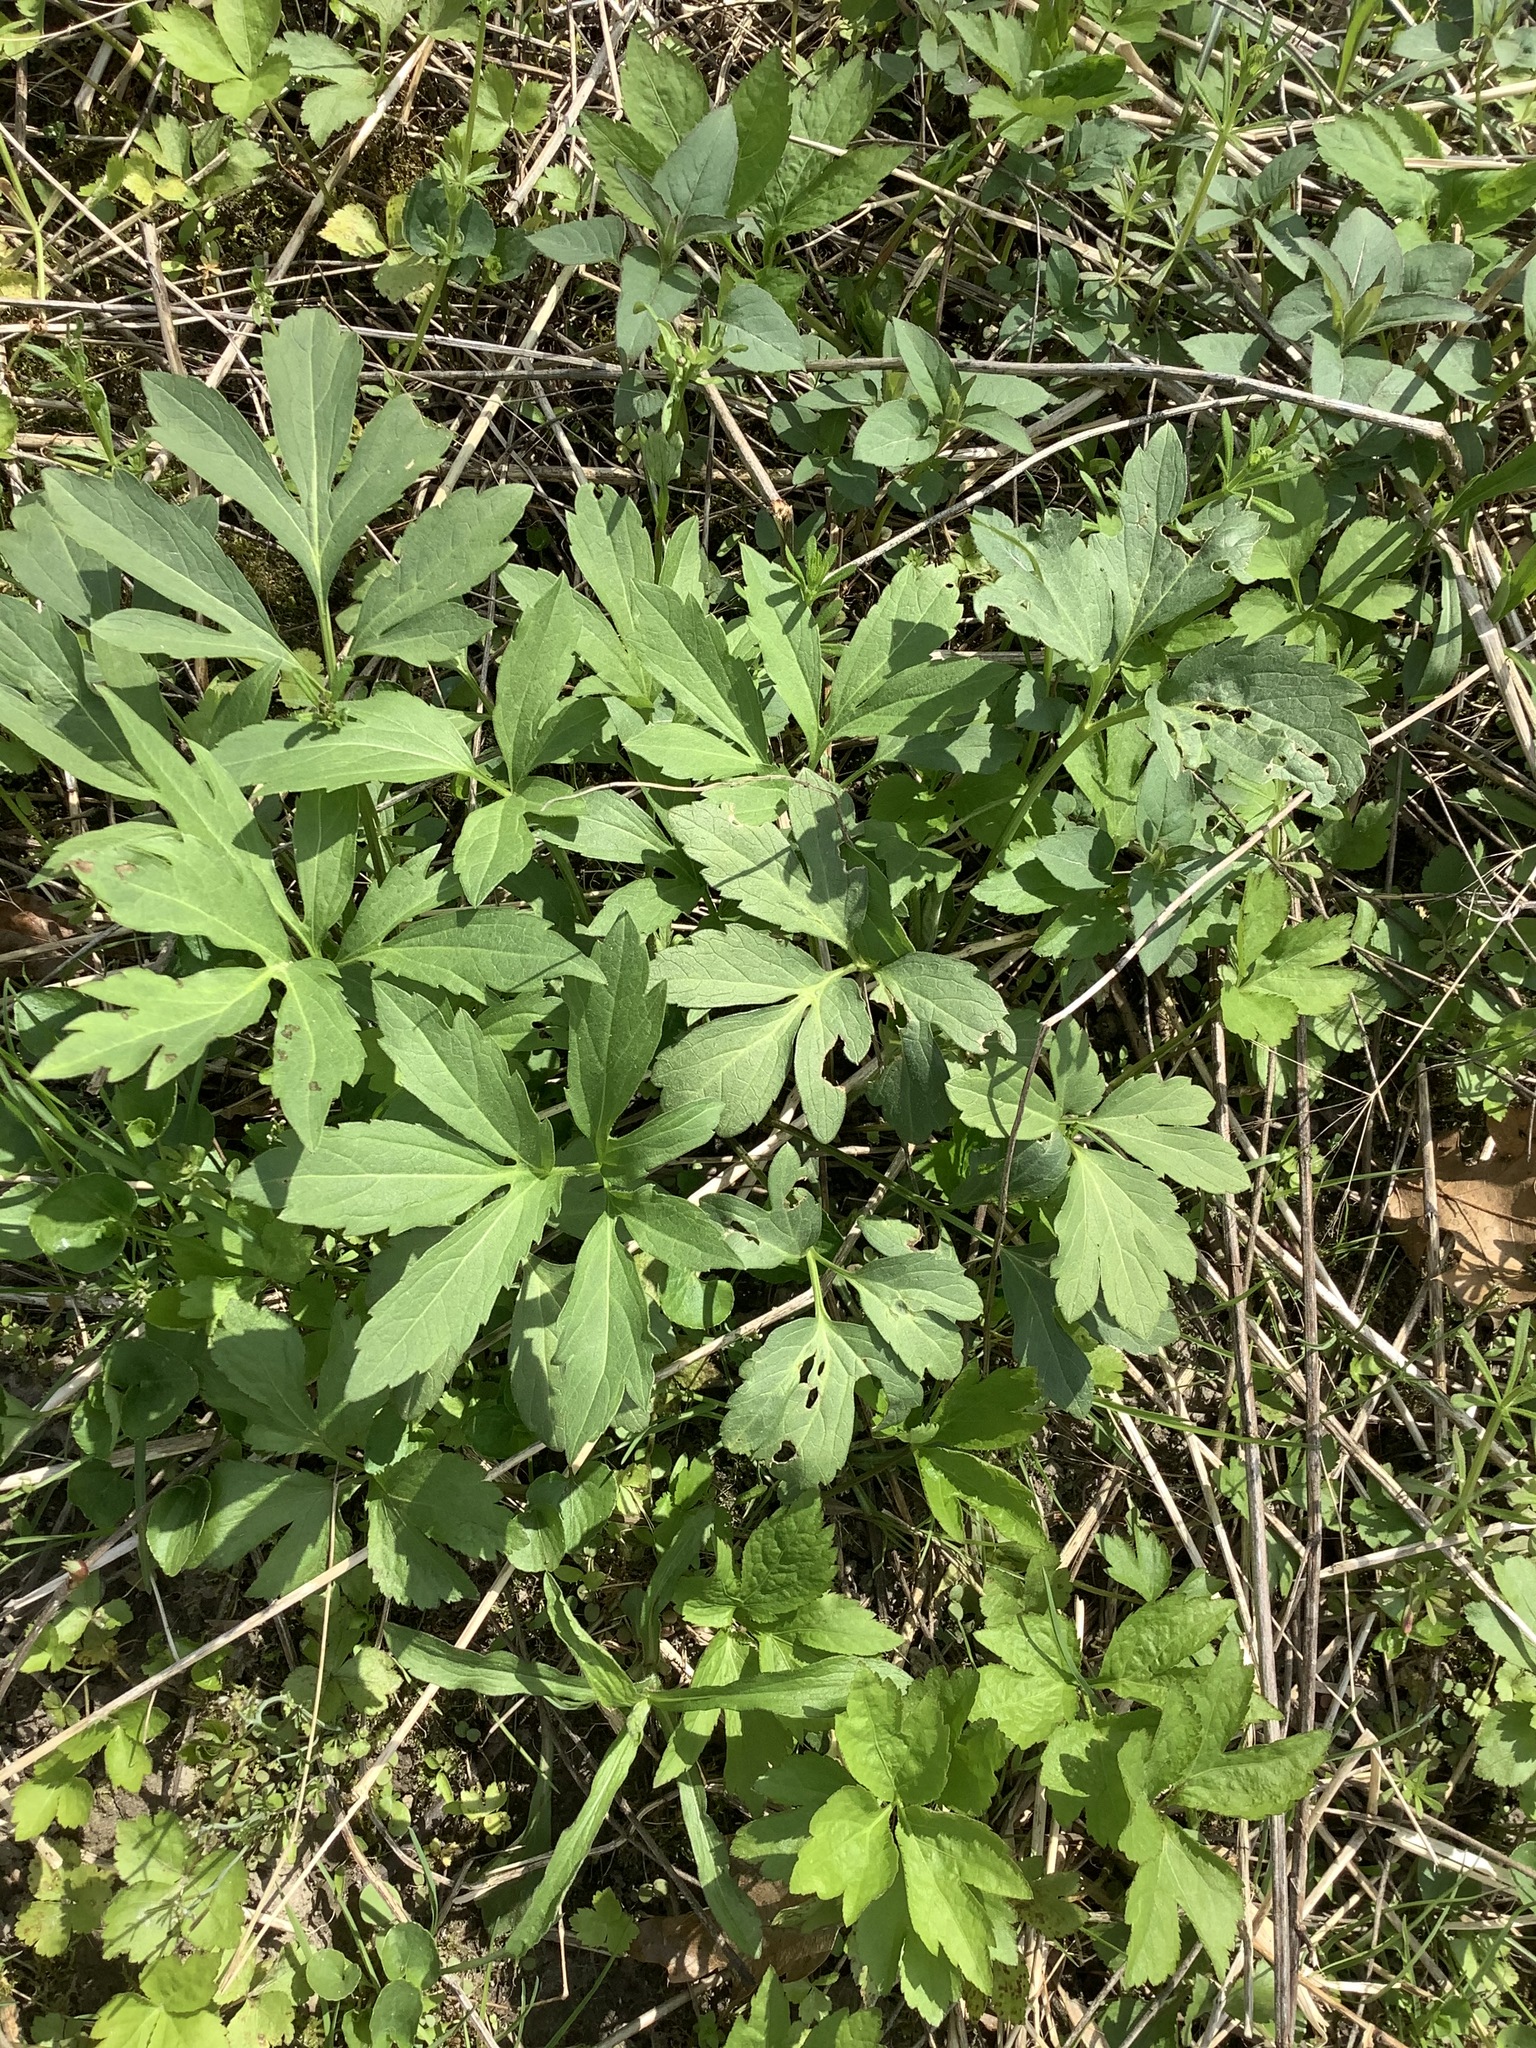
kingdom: Plantae
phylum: Tracheophyta
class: Magnoliopsida
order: Asterales
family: Asteraceae
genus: Rudbeckia
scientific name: Rudbeckia laciniata
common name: Coneflower
